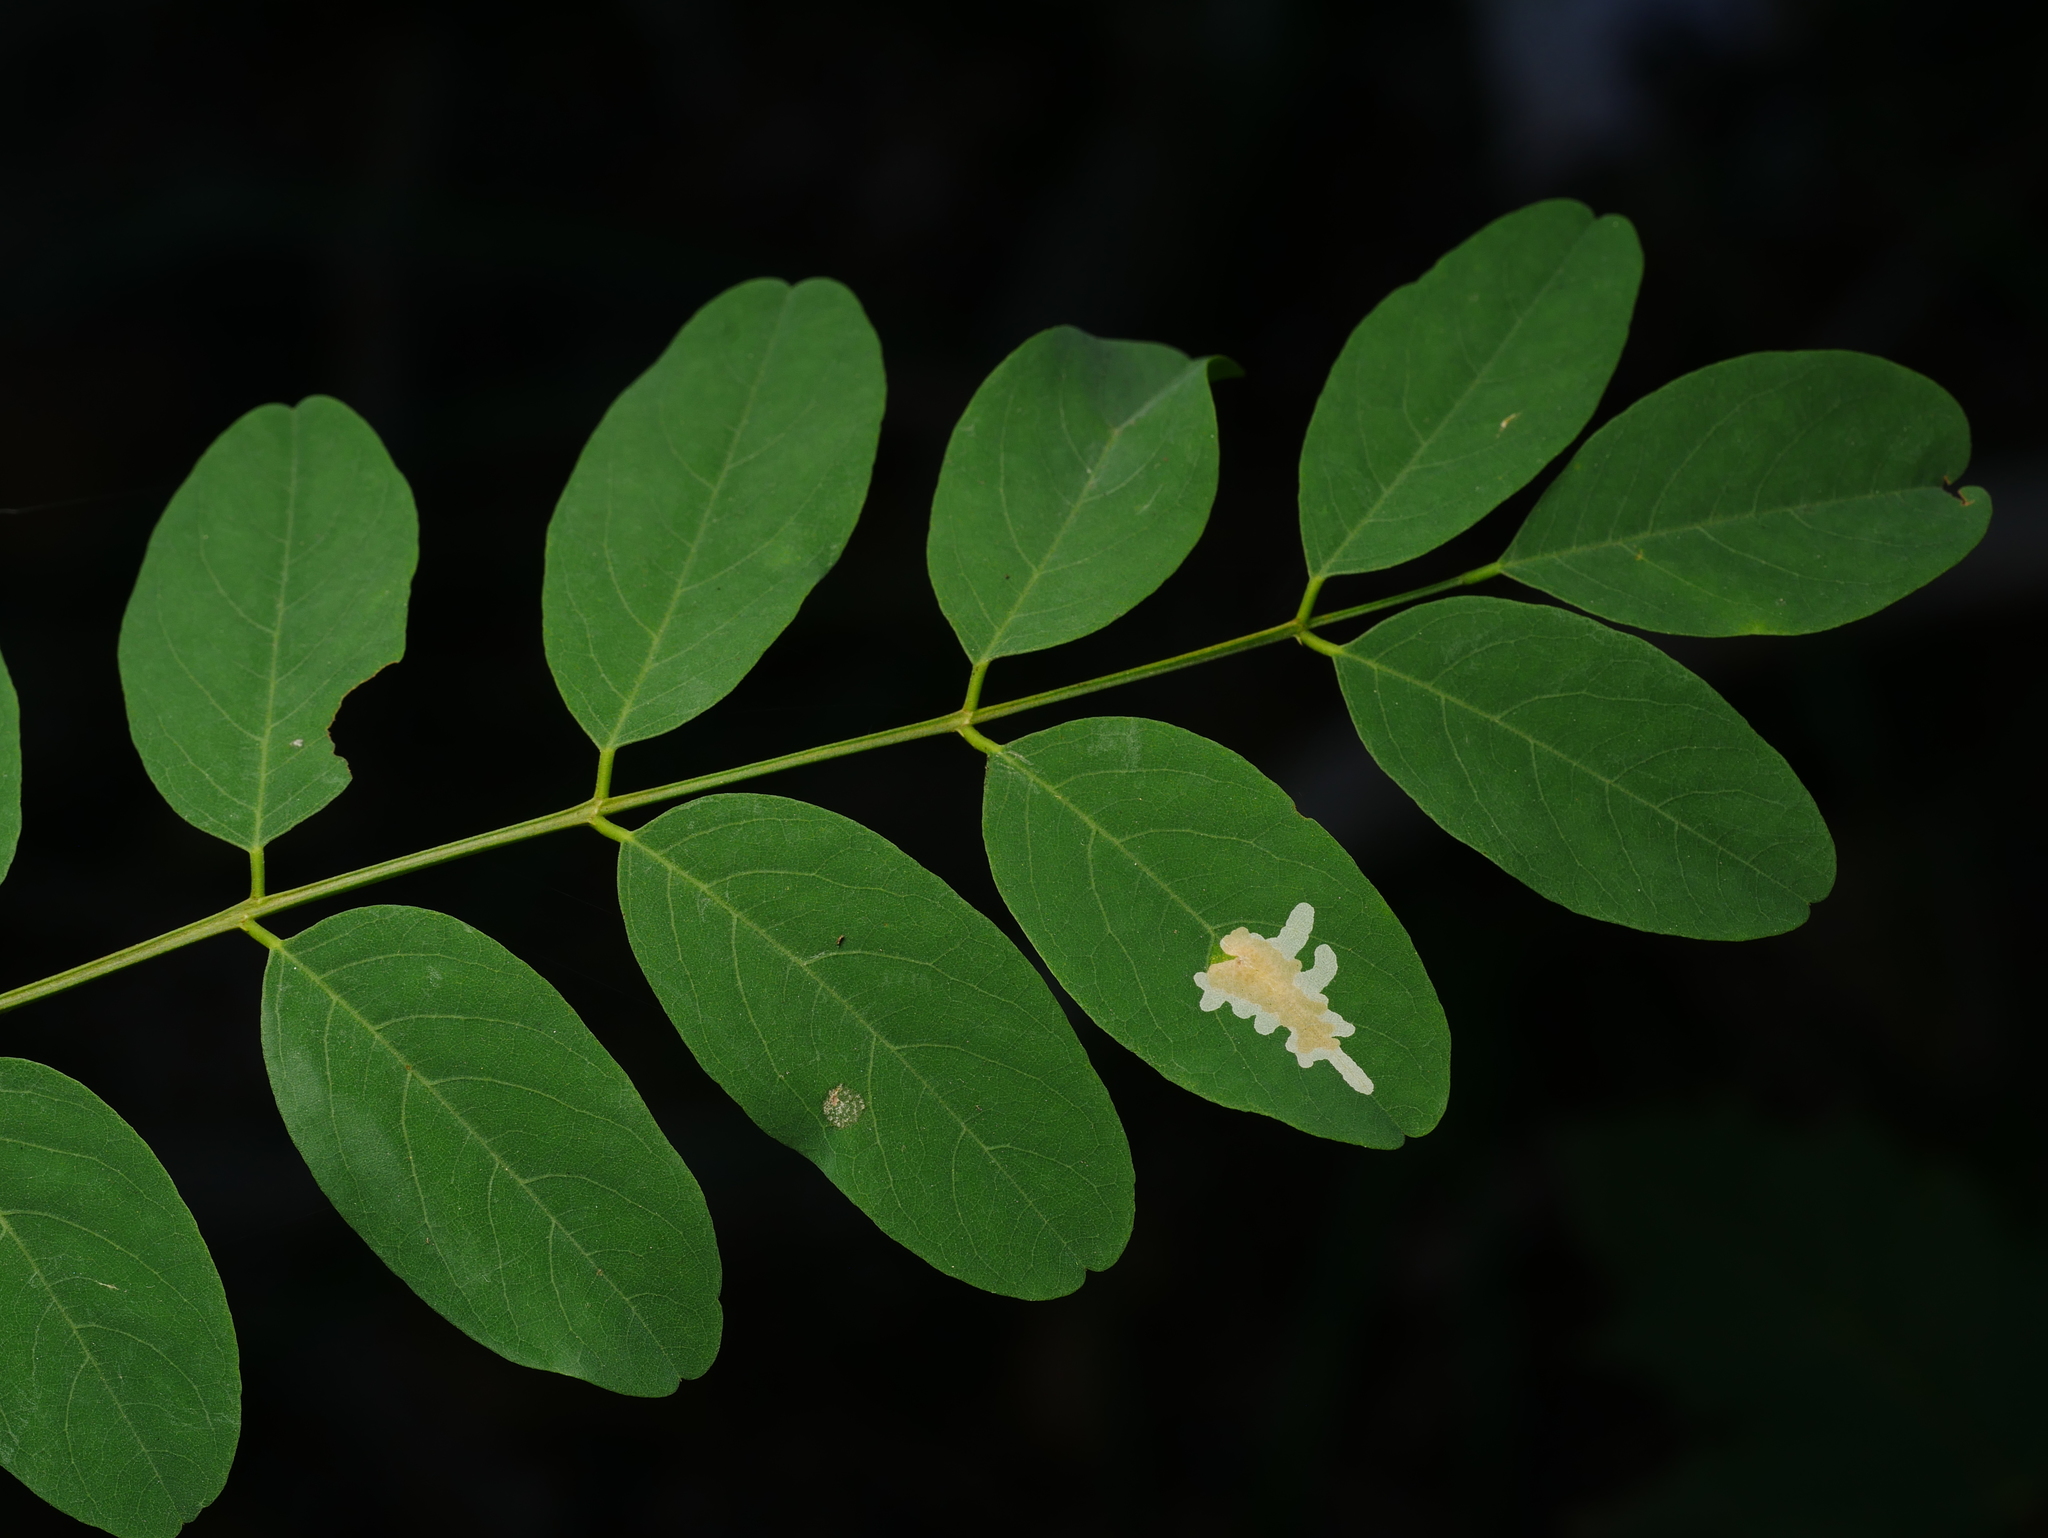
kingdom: Plantae
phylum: Tracheophyta
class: Magnoliopsida
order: Fabales
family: Fabaceae
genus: Robinia
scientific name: Robinia pseudoacacia
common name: Black locust
